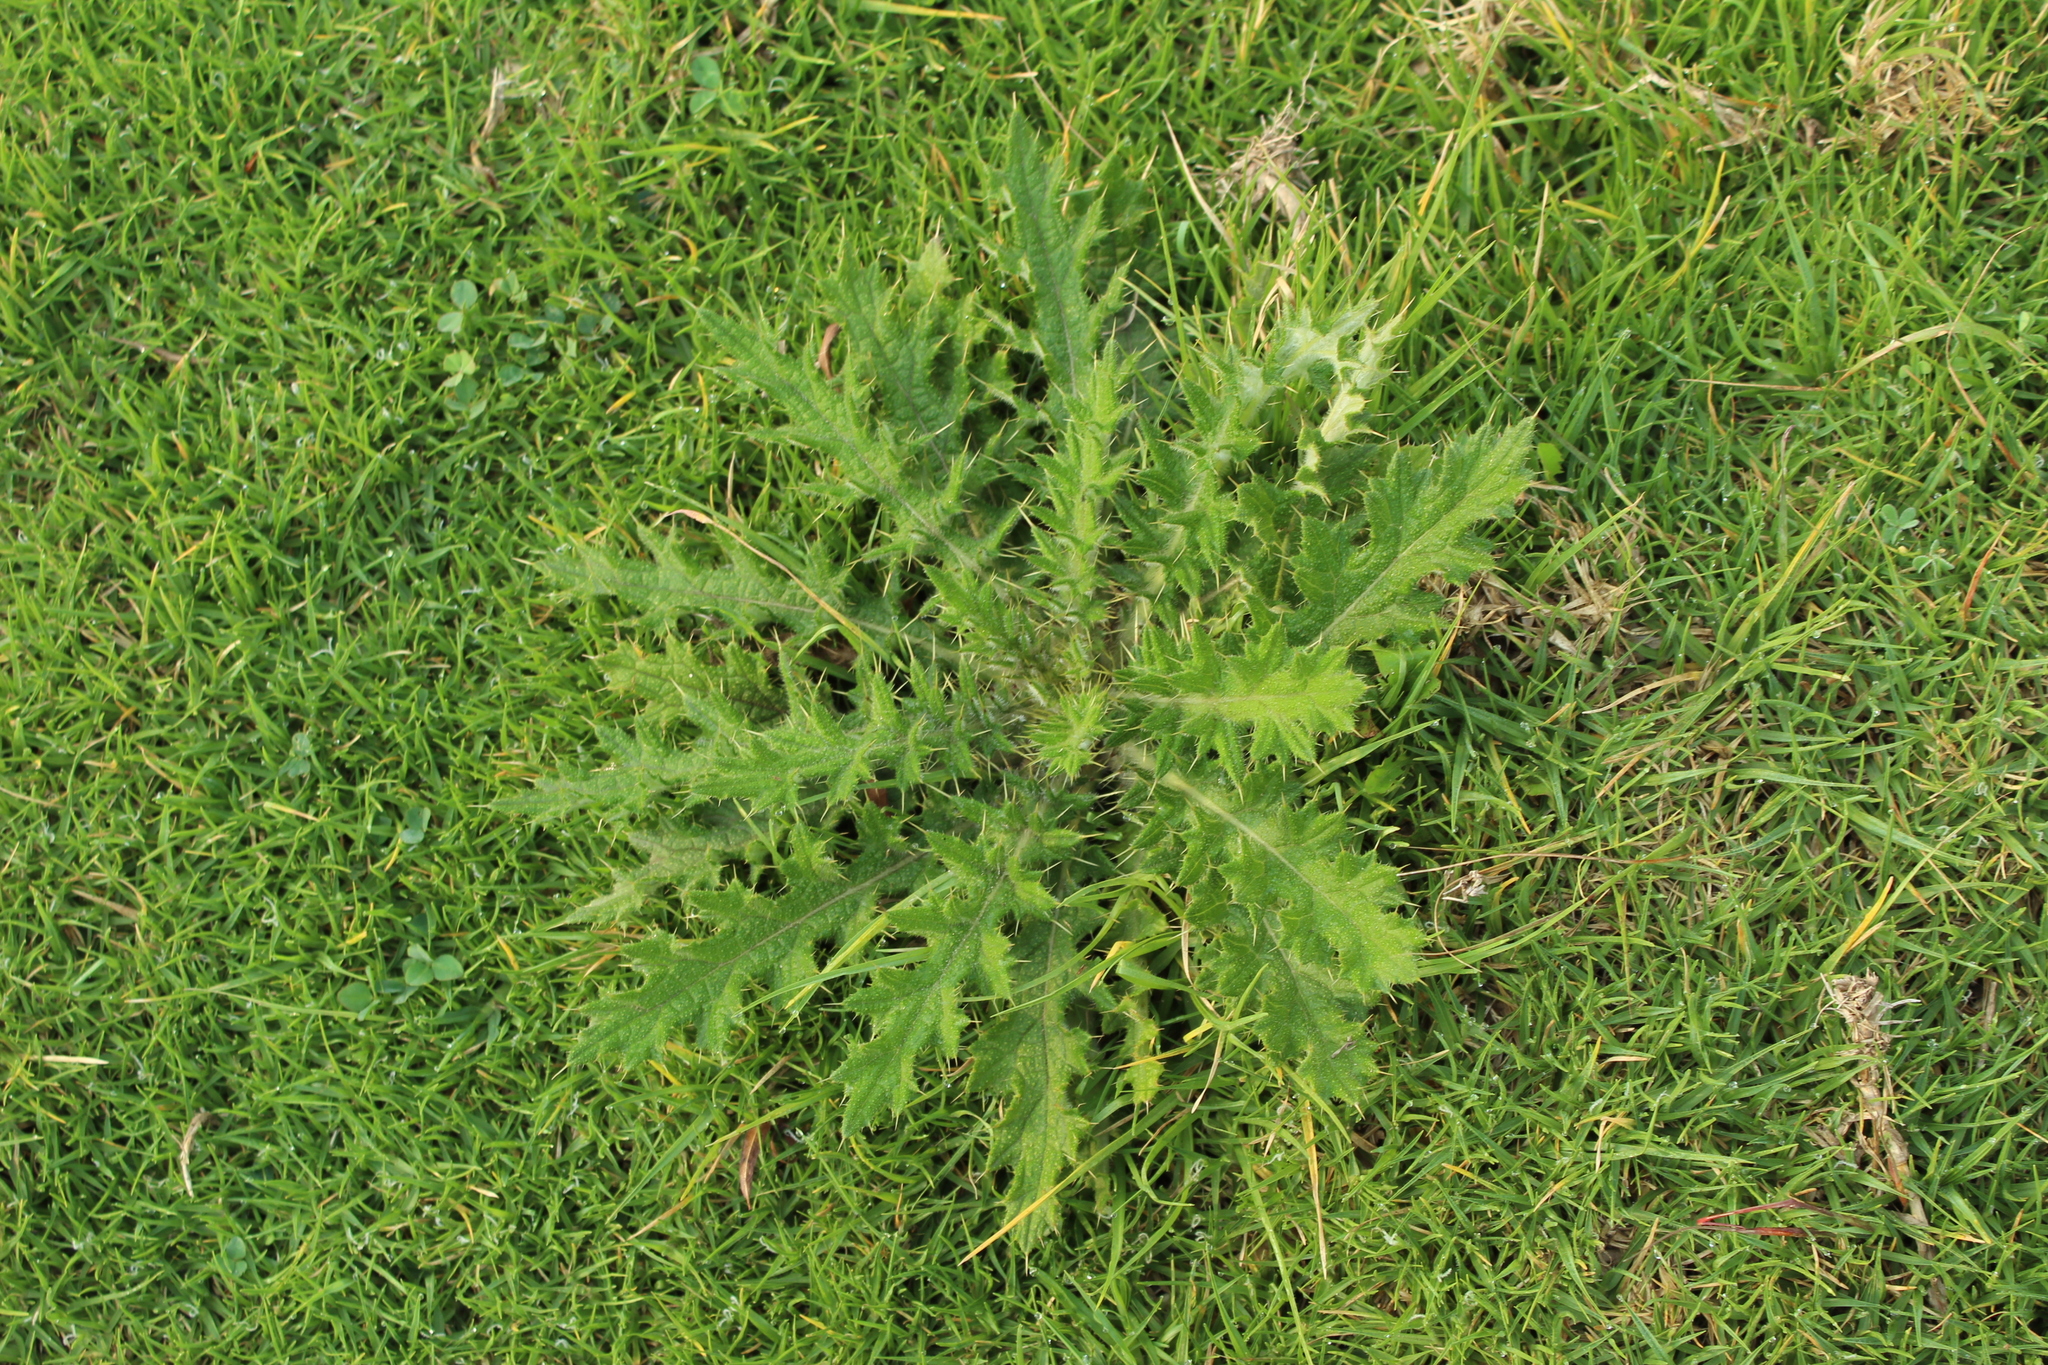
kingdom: Plantae
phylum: Tracheophyta
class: Magnoliopsida
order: Asterales
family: Asteraceae
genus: Cirsium
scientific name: Cirsium vulgare
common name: Bull thistle
